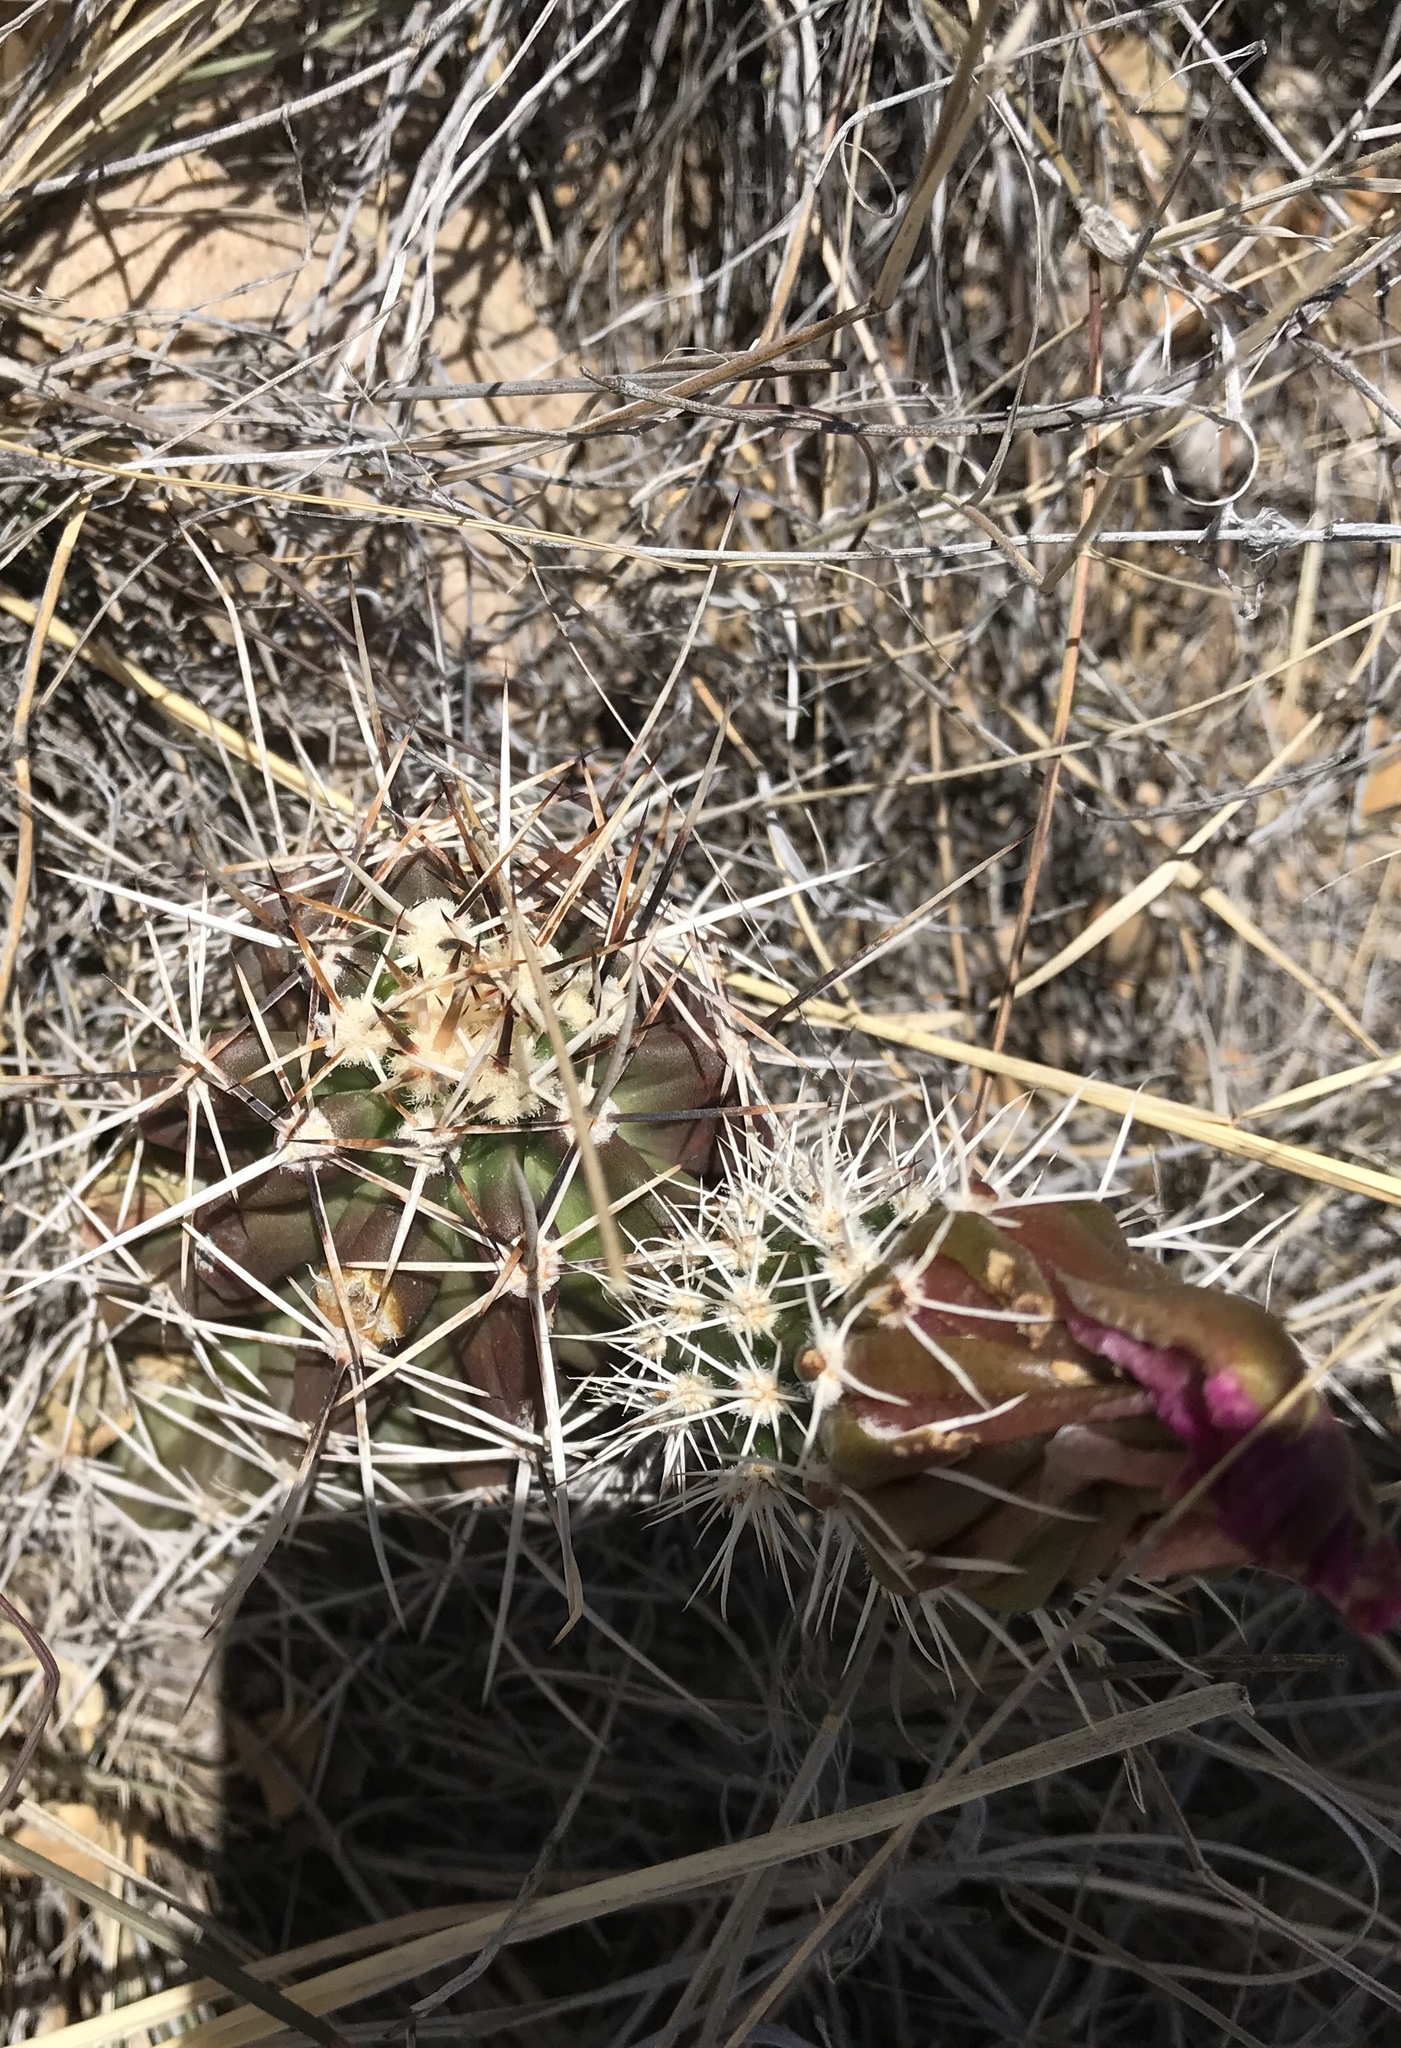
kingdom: Plantae
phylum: Tracheophyta
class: Magnoliopsida
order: Caryophyllales
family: Cactaceae
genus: Echinocereus
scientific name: Echinocereus fendleri
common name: Fendler's hedgehog cactus
